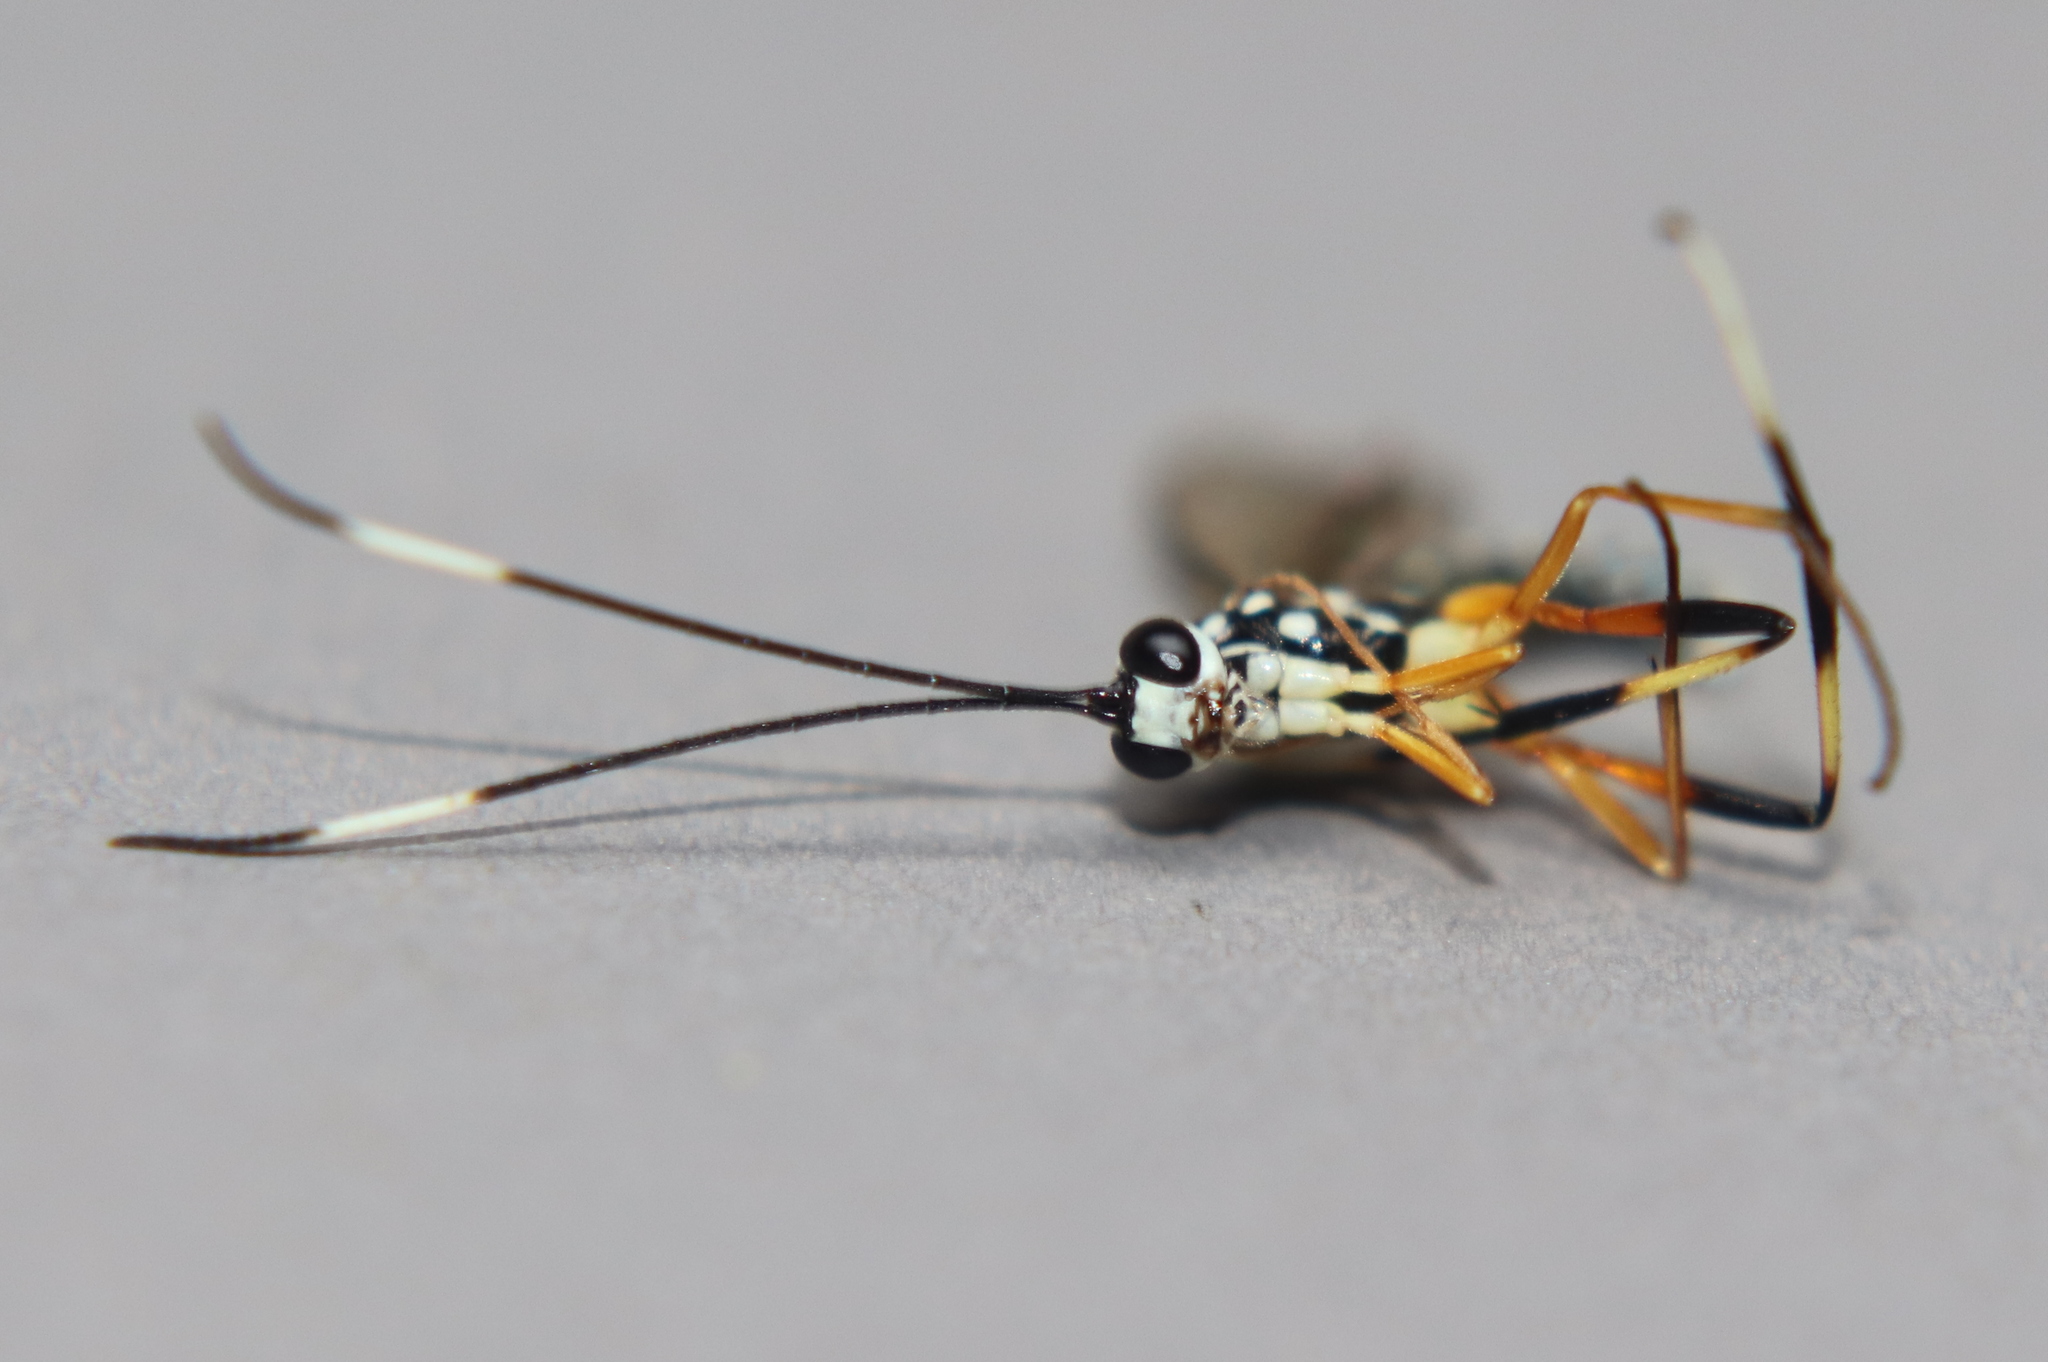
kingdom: Animalia
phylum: Arthropoda
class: Insecta
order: Hymenoptera
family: Ichneumonidae
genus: Xanthocryptus
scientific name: Xanthocryptus novozealandicus
